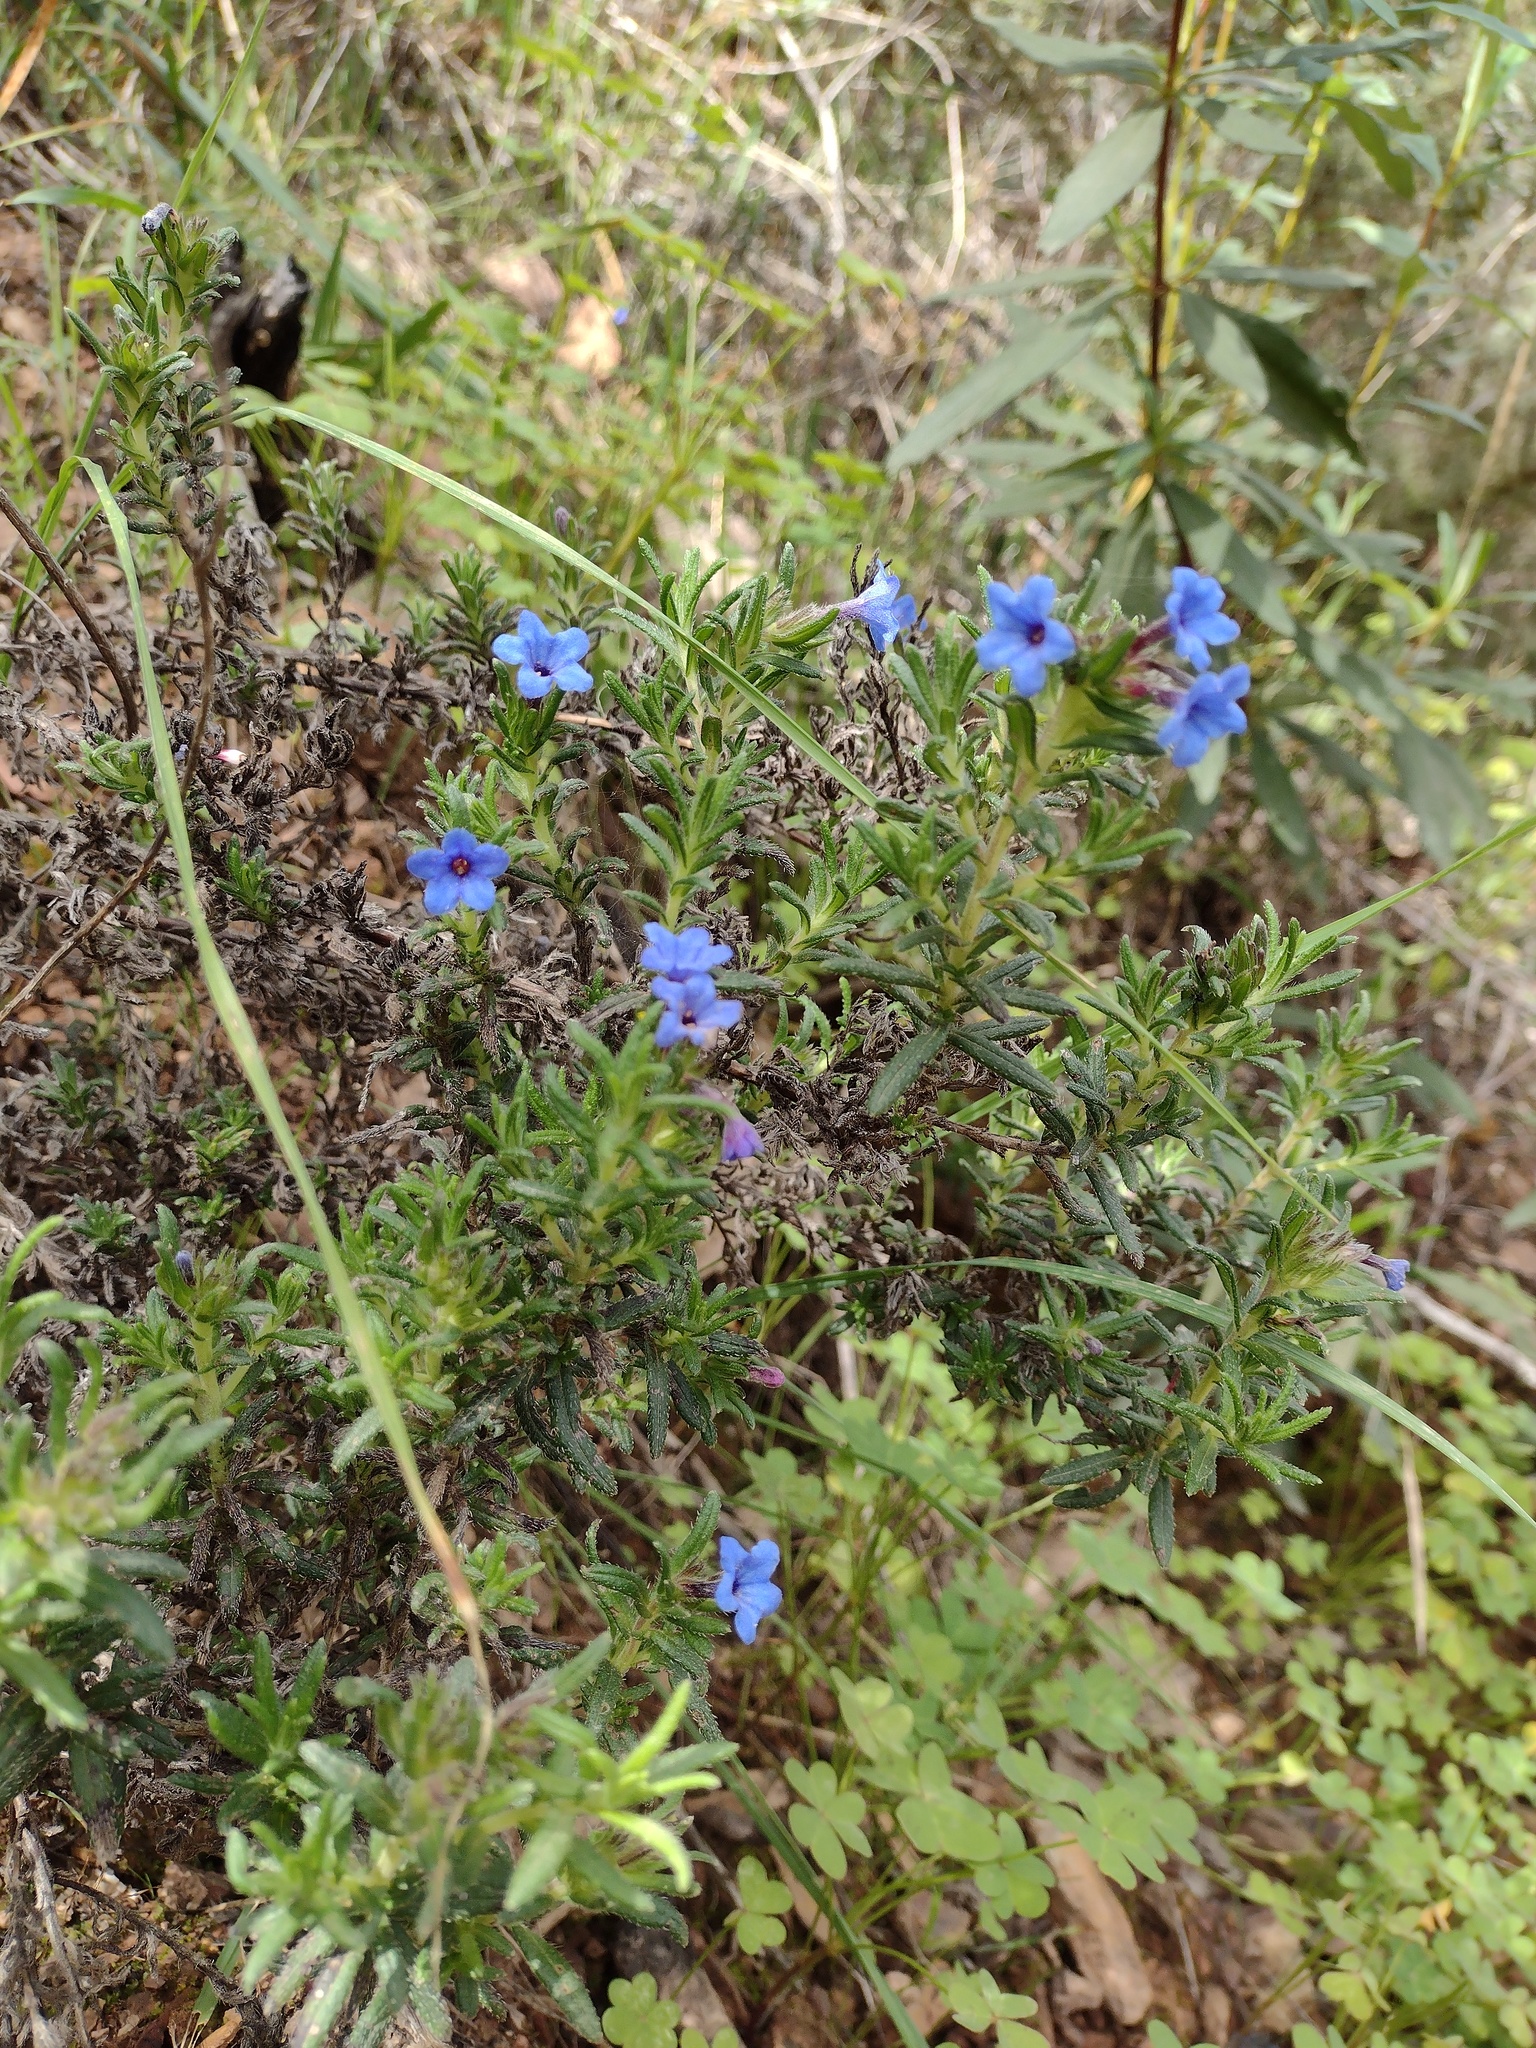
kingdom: Plantae
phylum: Tracheophyta
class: Magnoliopsida
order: Boraginales
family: Boraginaceae
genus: Glandora
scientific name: Glandora prostrata
